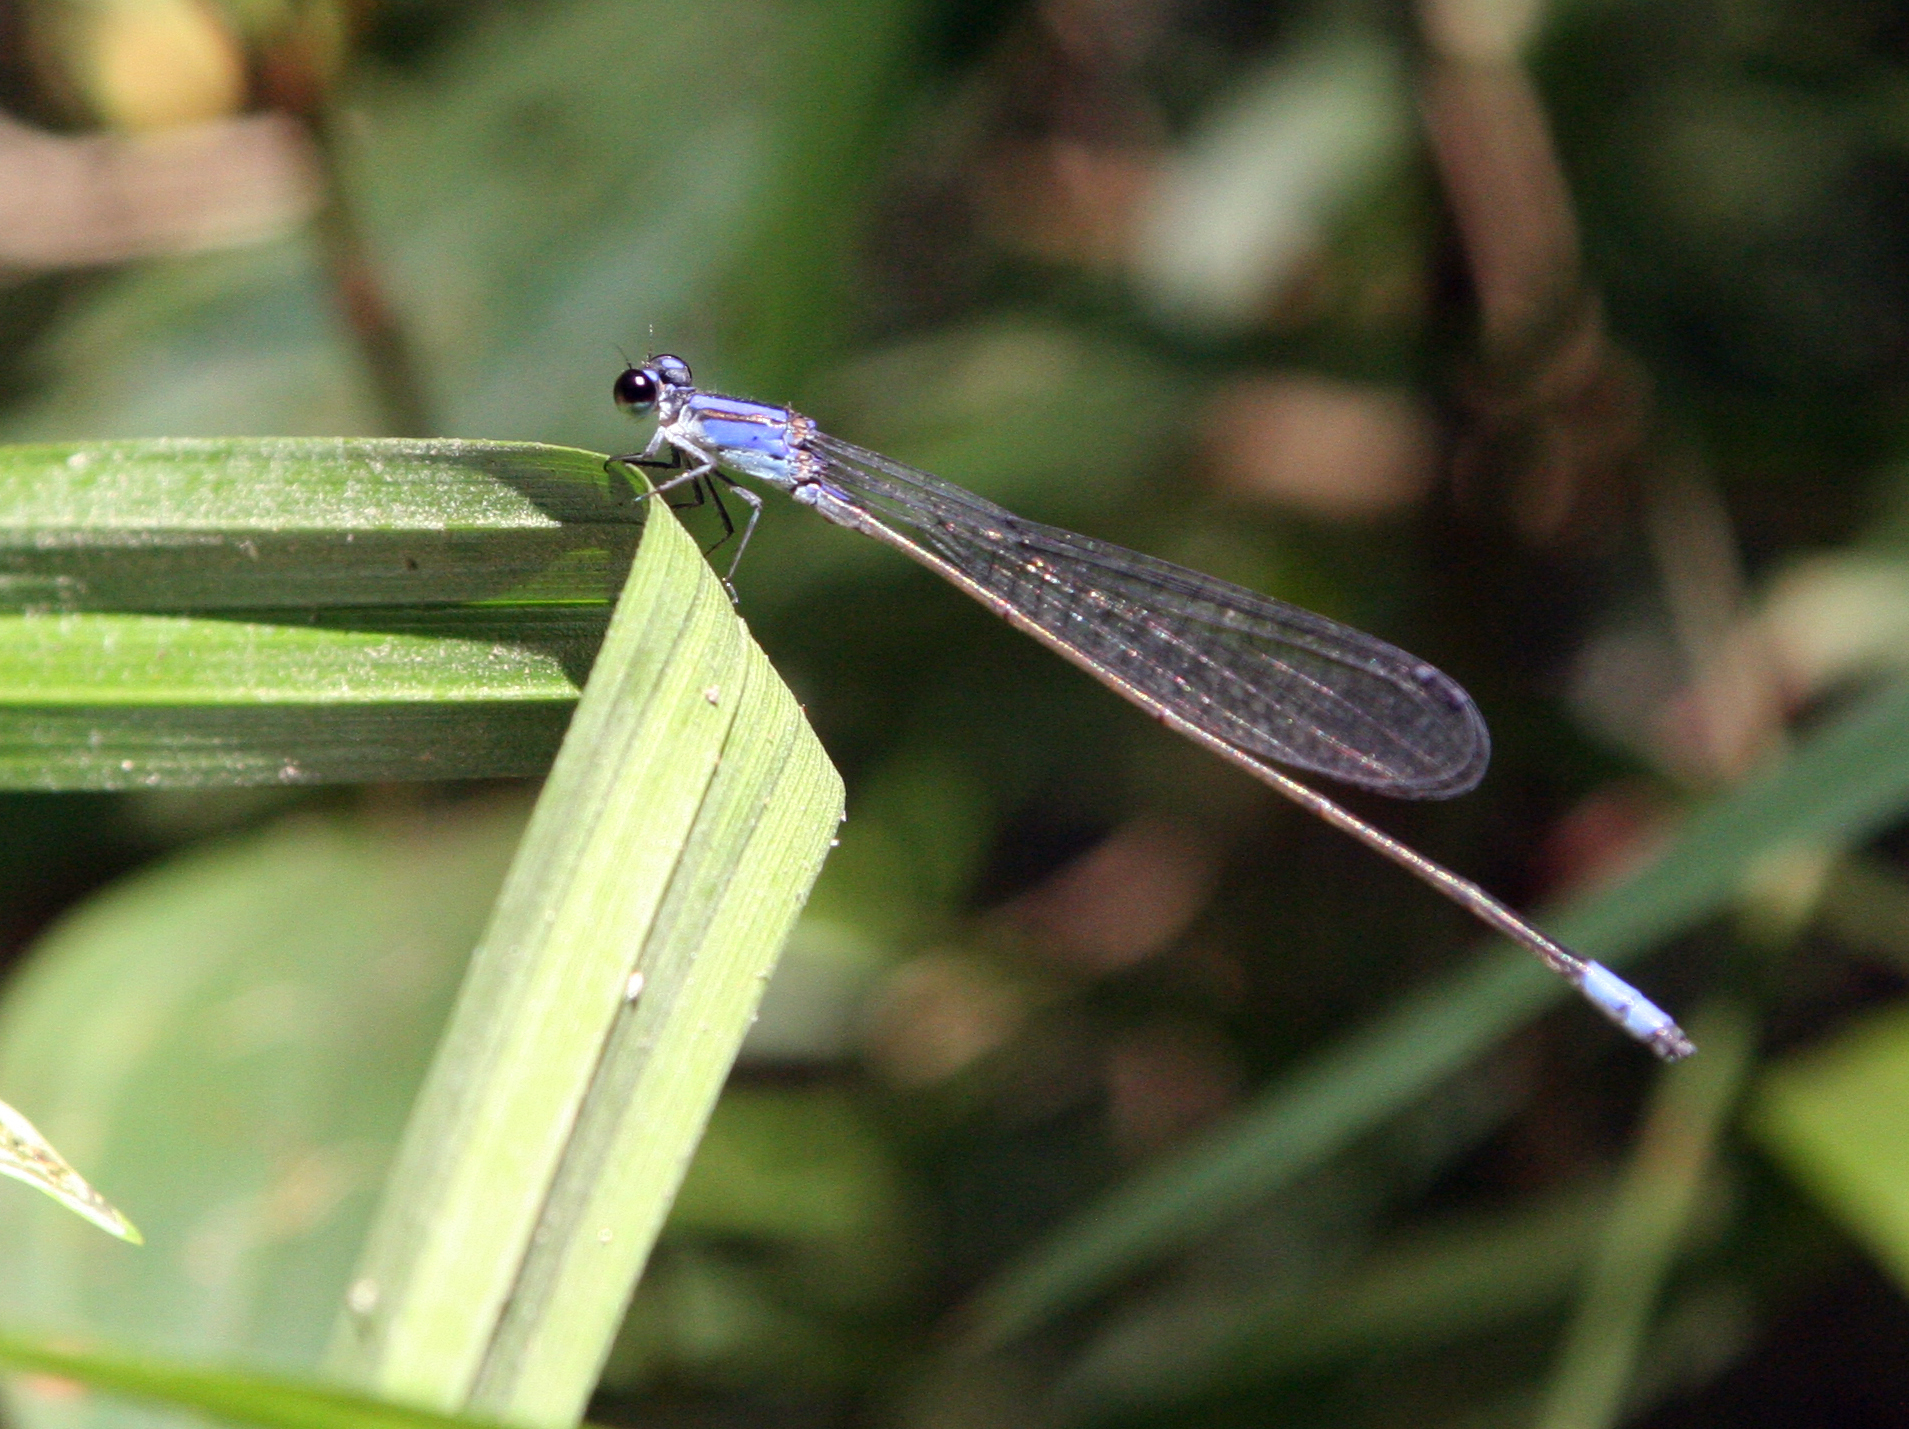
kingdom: Animalia
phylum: Arthropoda
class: Insecta
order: Odonata
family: Coenagrionidae
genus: Archibasis
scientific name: Archibasis viola
